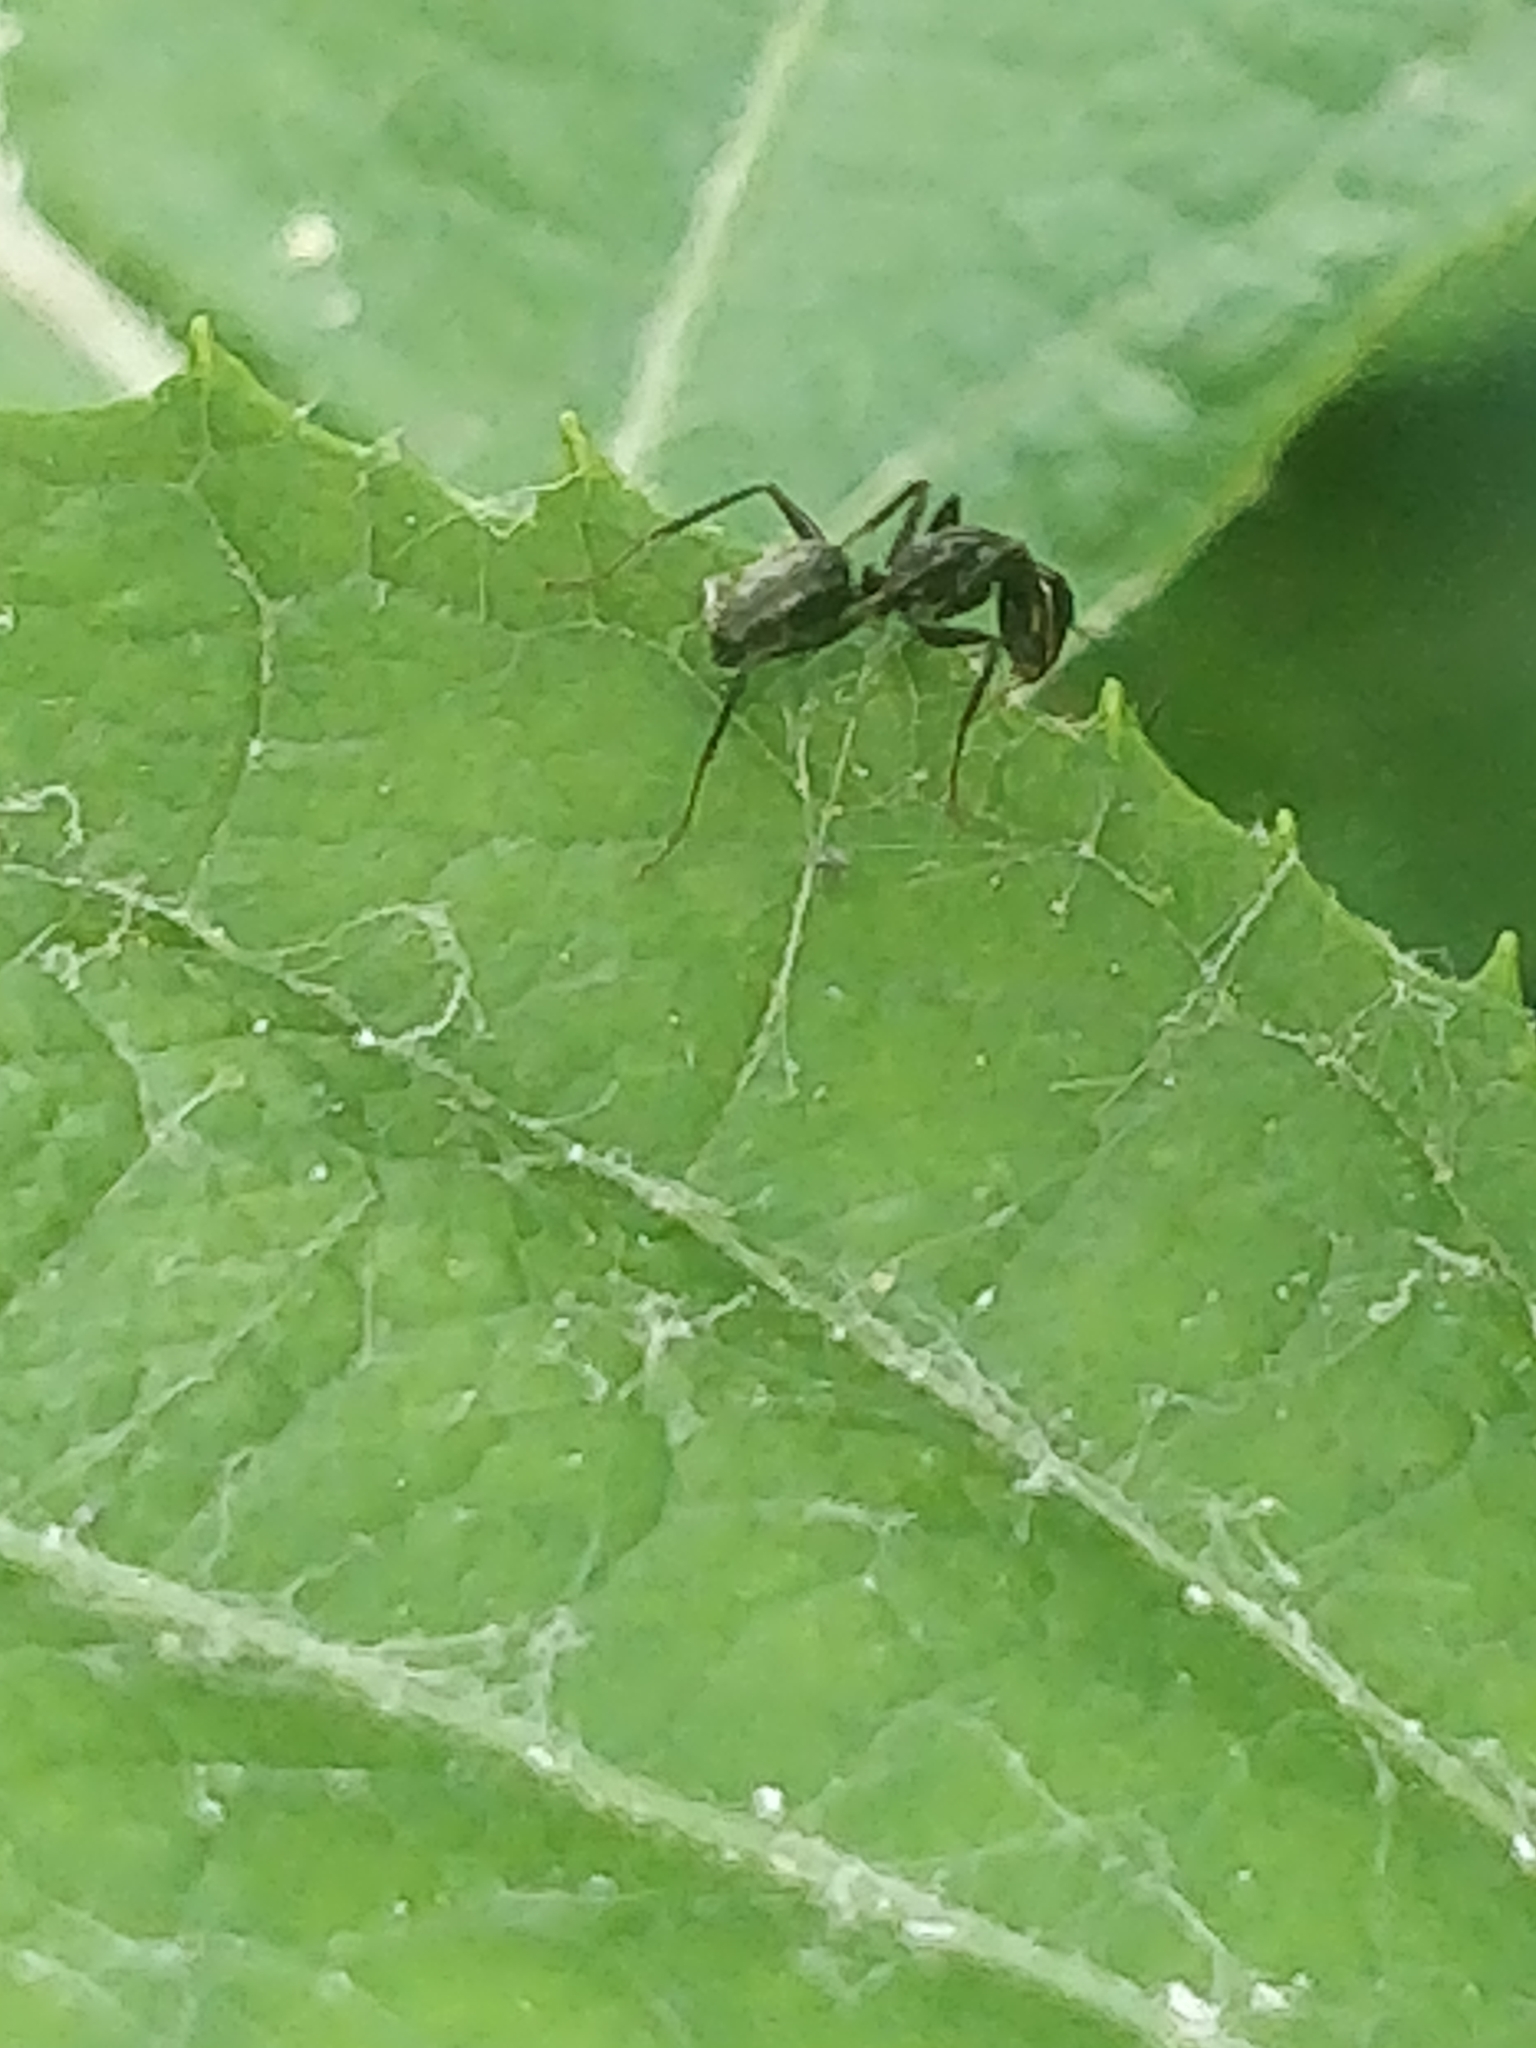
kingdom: Animalia
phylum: Arthropoda
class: Insecta
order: Hymenoptera
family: Formicidae
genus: Camponotus
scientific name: Camponotus pennsylvanicus
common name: Black carpenter ant
